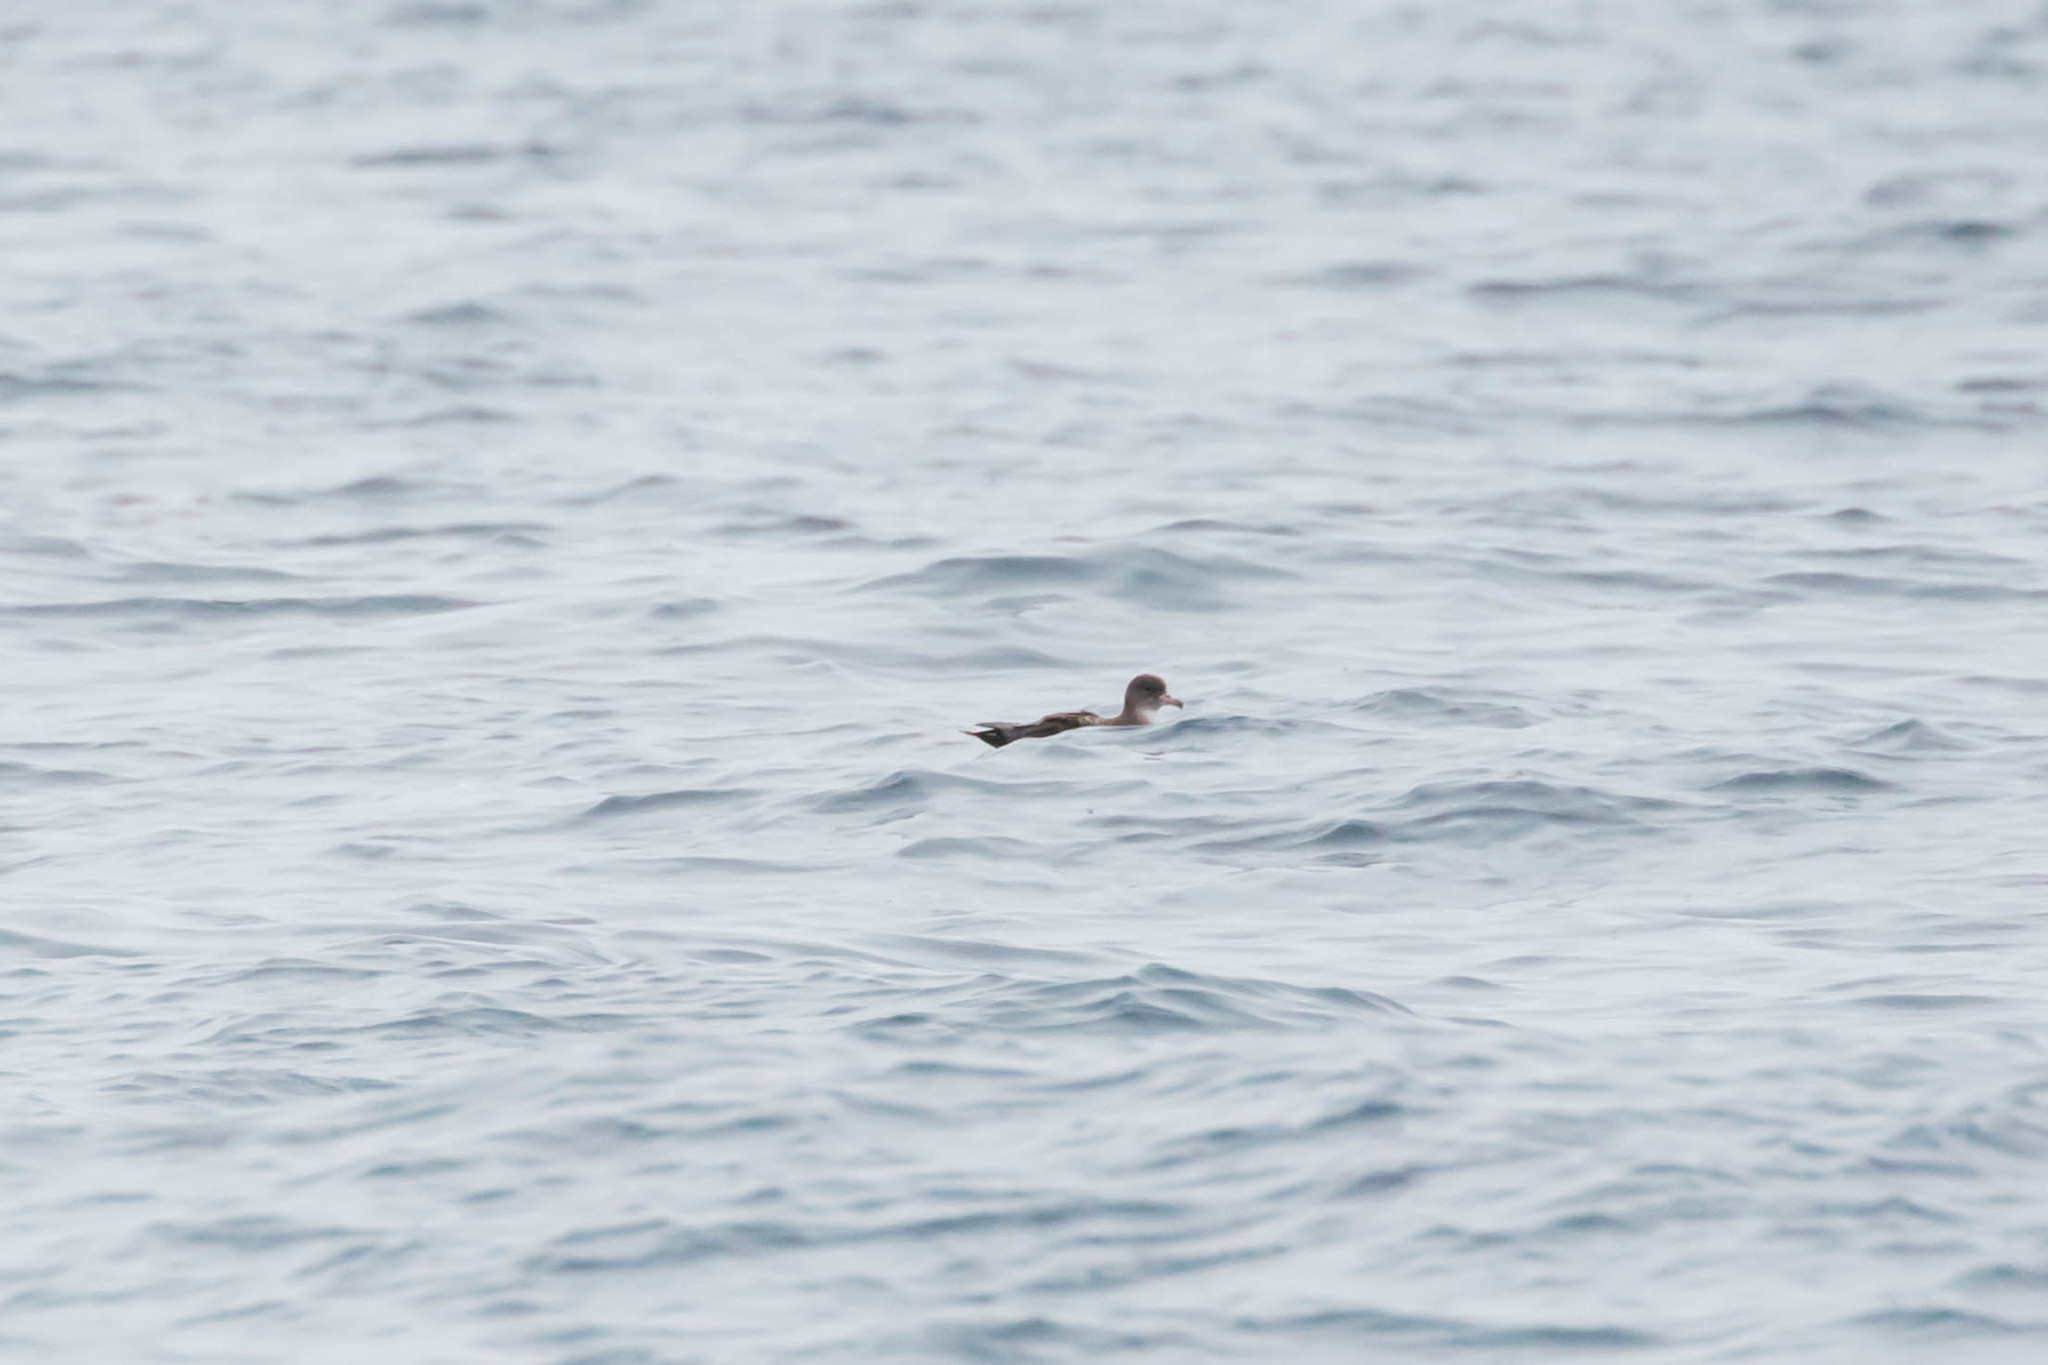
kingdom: Animalia
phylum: Chordata
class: Aves
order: Procellariiformes
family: Procellariidae
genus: Puffinus
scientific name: Puffinus creatopus
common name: Pink-footed shearwater
